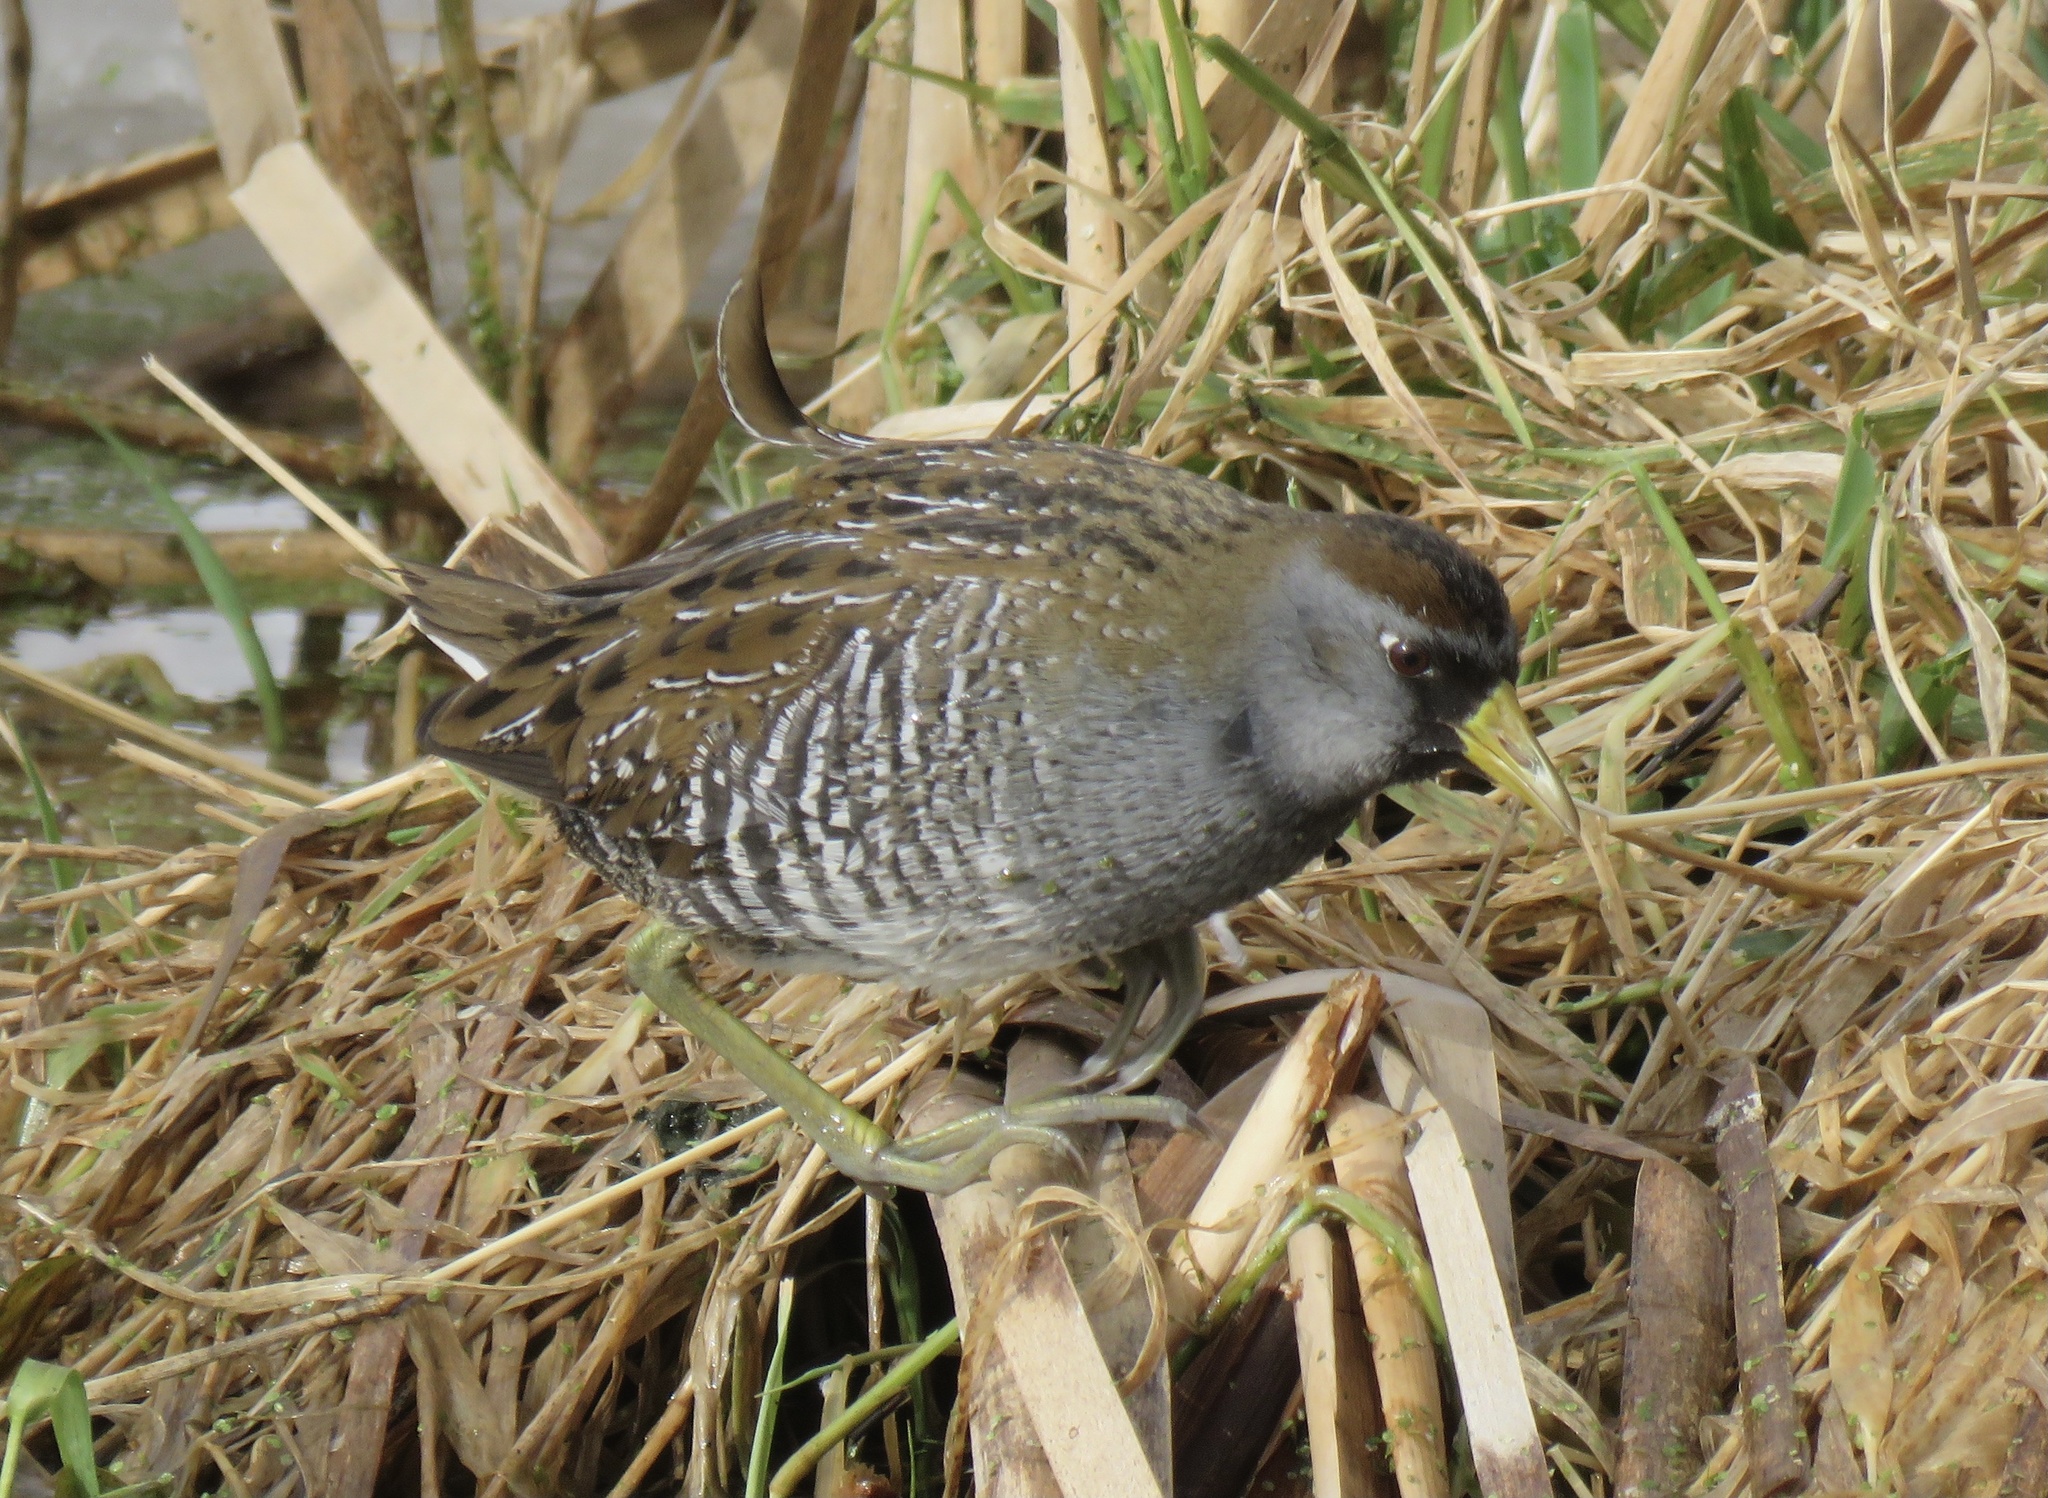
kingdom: Animalia
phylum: Chordata
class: Aves
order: Gruiformes
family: Rallidae
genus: Porzana
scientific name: Porzana carolina
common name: Sora
